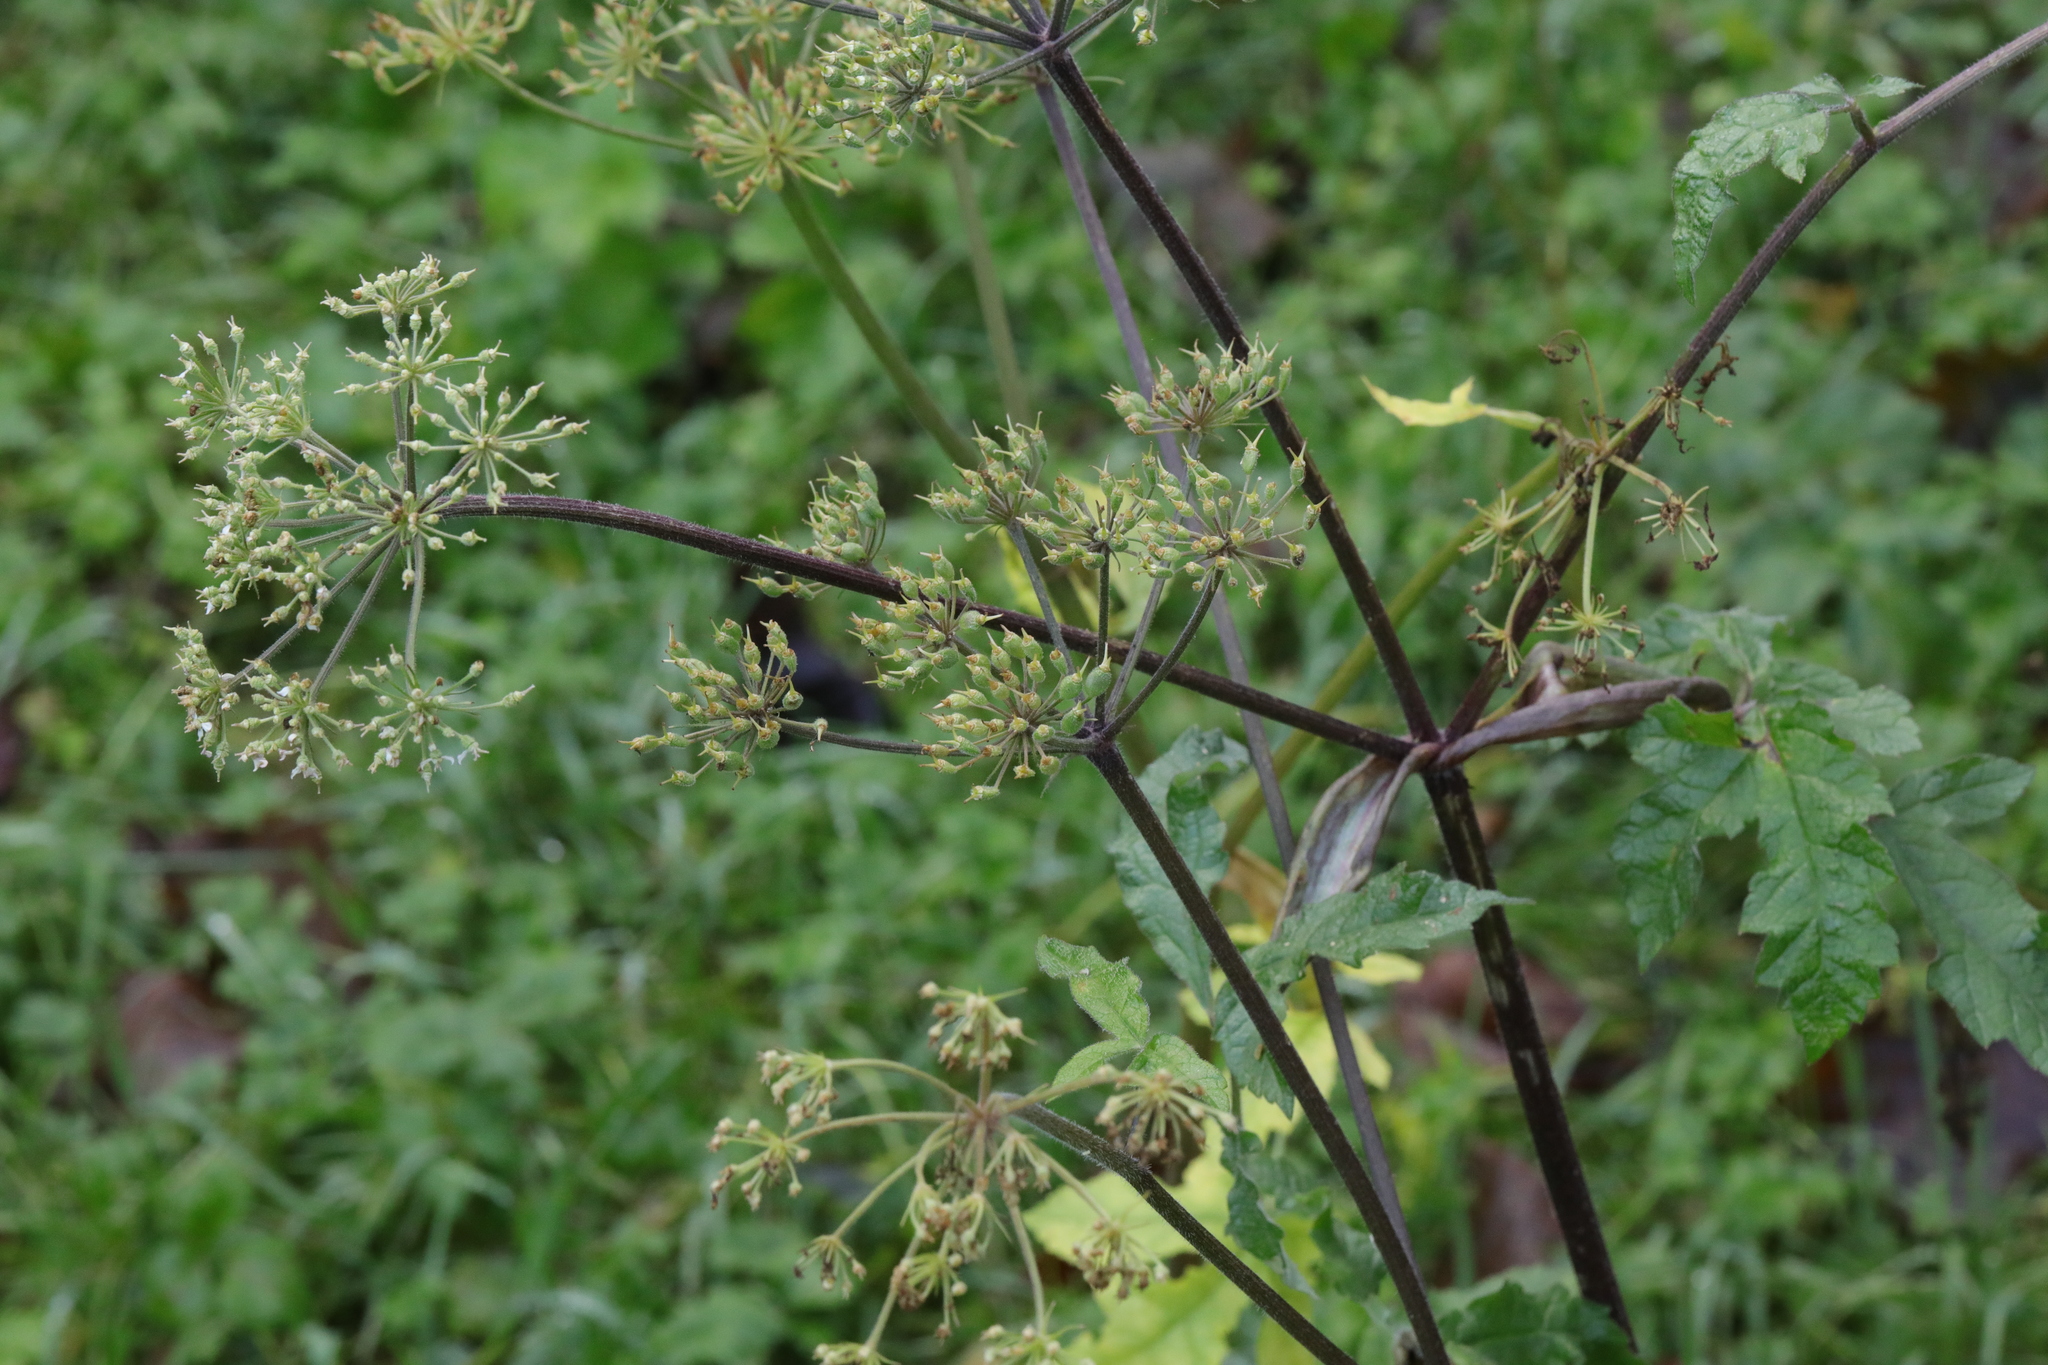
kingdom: Plantae
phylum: Tracheophyta
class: Magnoliopsida
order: Apiales
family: Apiaceae
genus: Heracleum
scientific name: Heracleum sphondylium
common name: Hogweed
